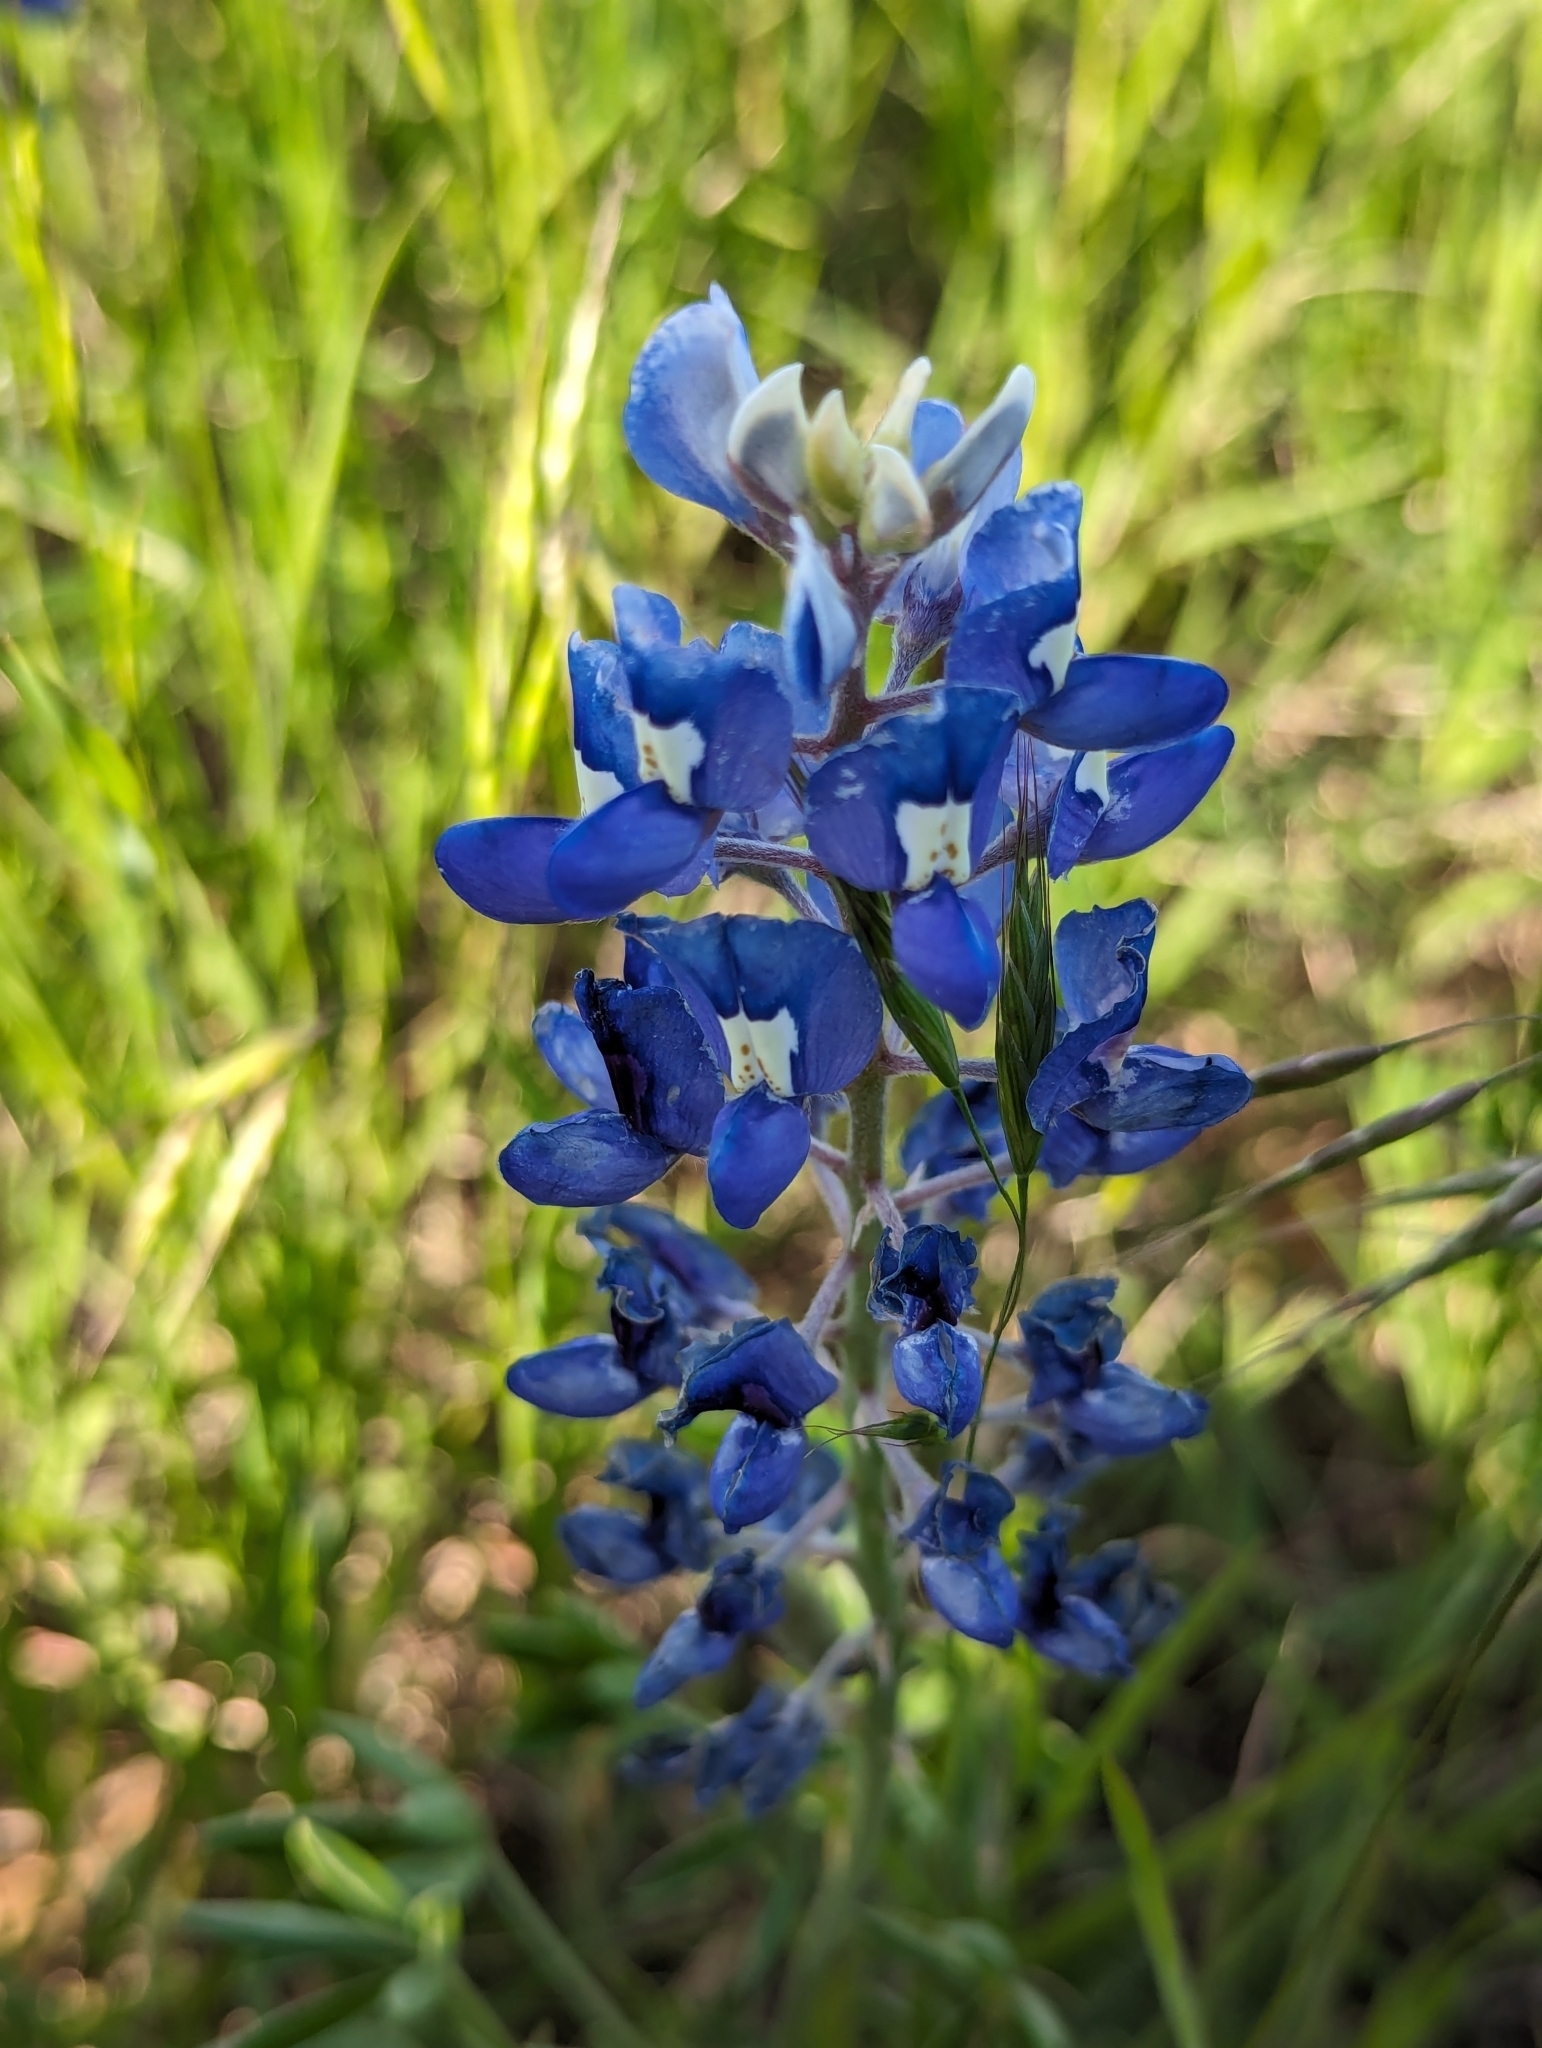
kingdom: Plantae
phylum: Tracheophyta
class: Magnoliopsida
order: Fabales
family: Fabaceae
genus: Lupinus
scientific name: Lupinus texensis
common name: Texas bluebonnet
